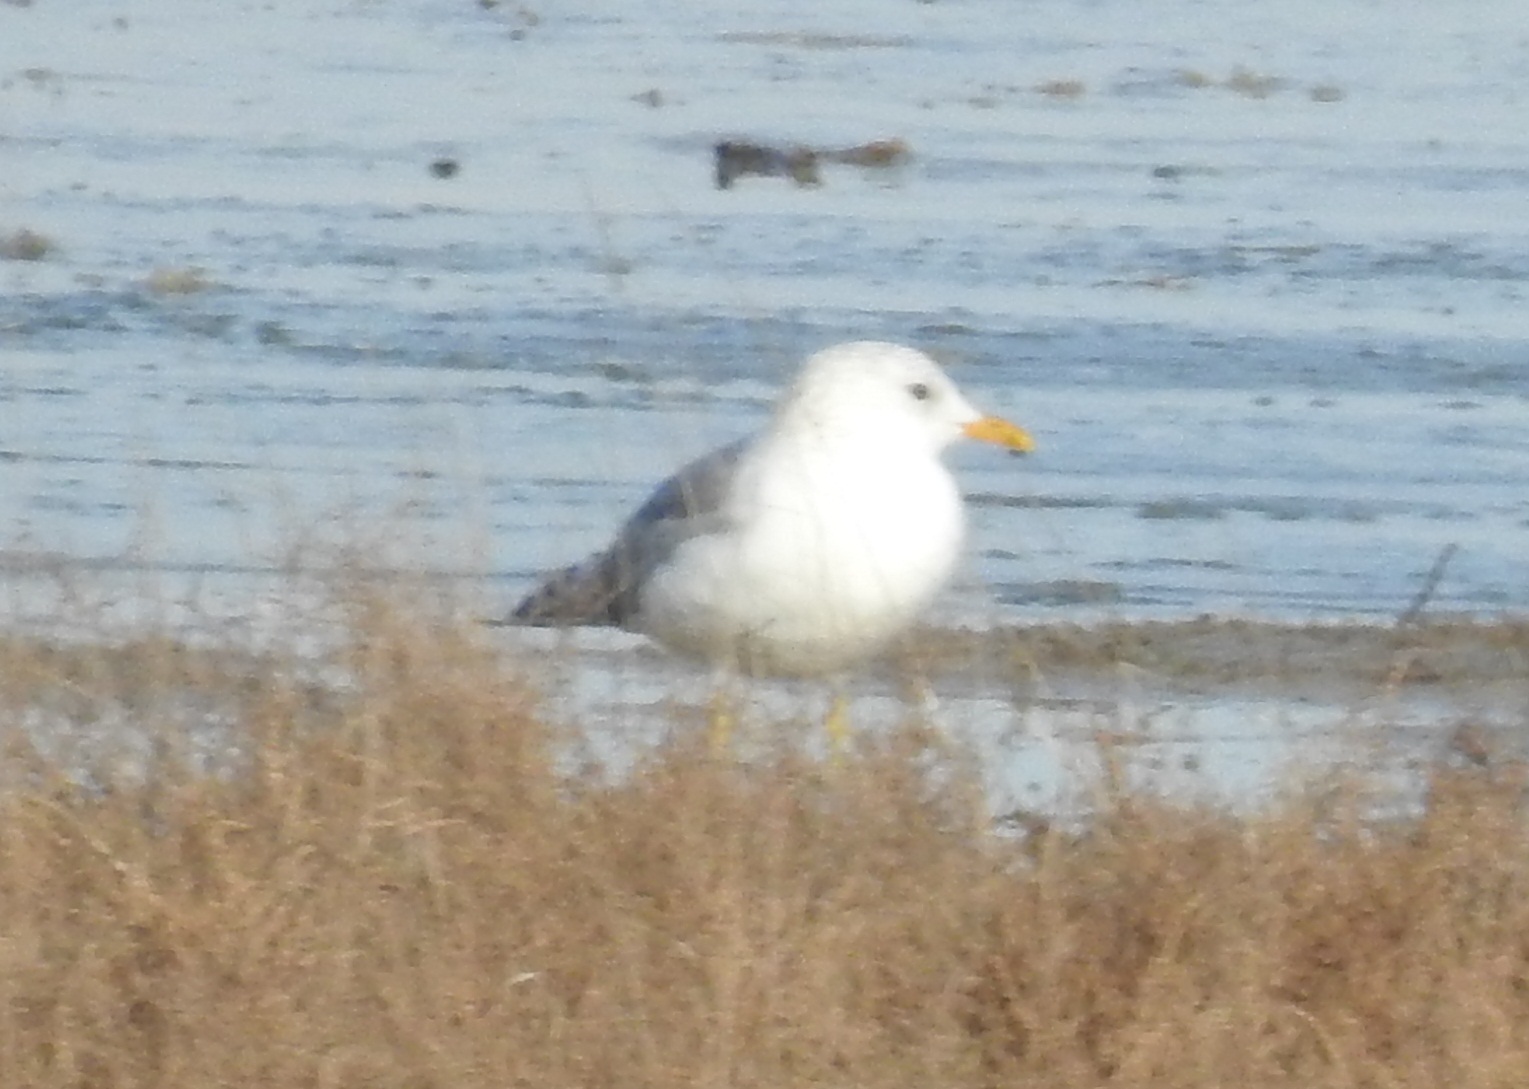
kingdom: Animalia
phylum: Chordata
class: Aves
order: Charadriiformes
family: Laridae
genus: Larus
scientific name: Larus canus
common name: Mew gull
